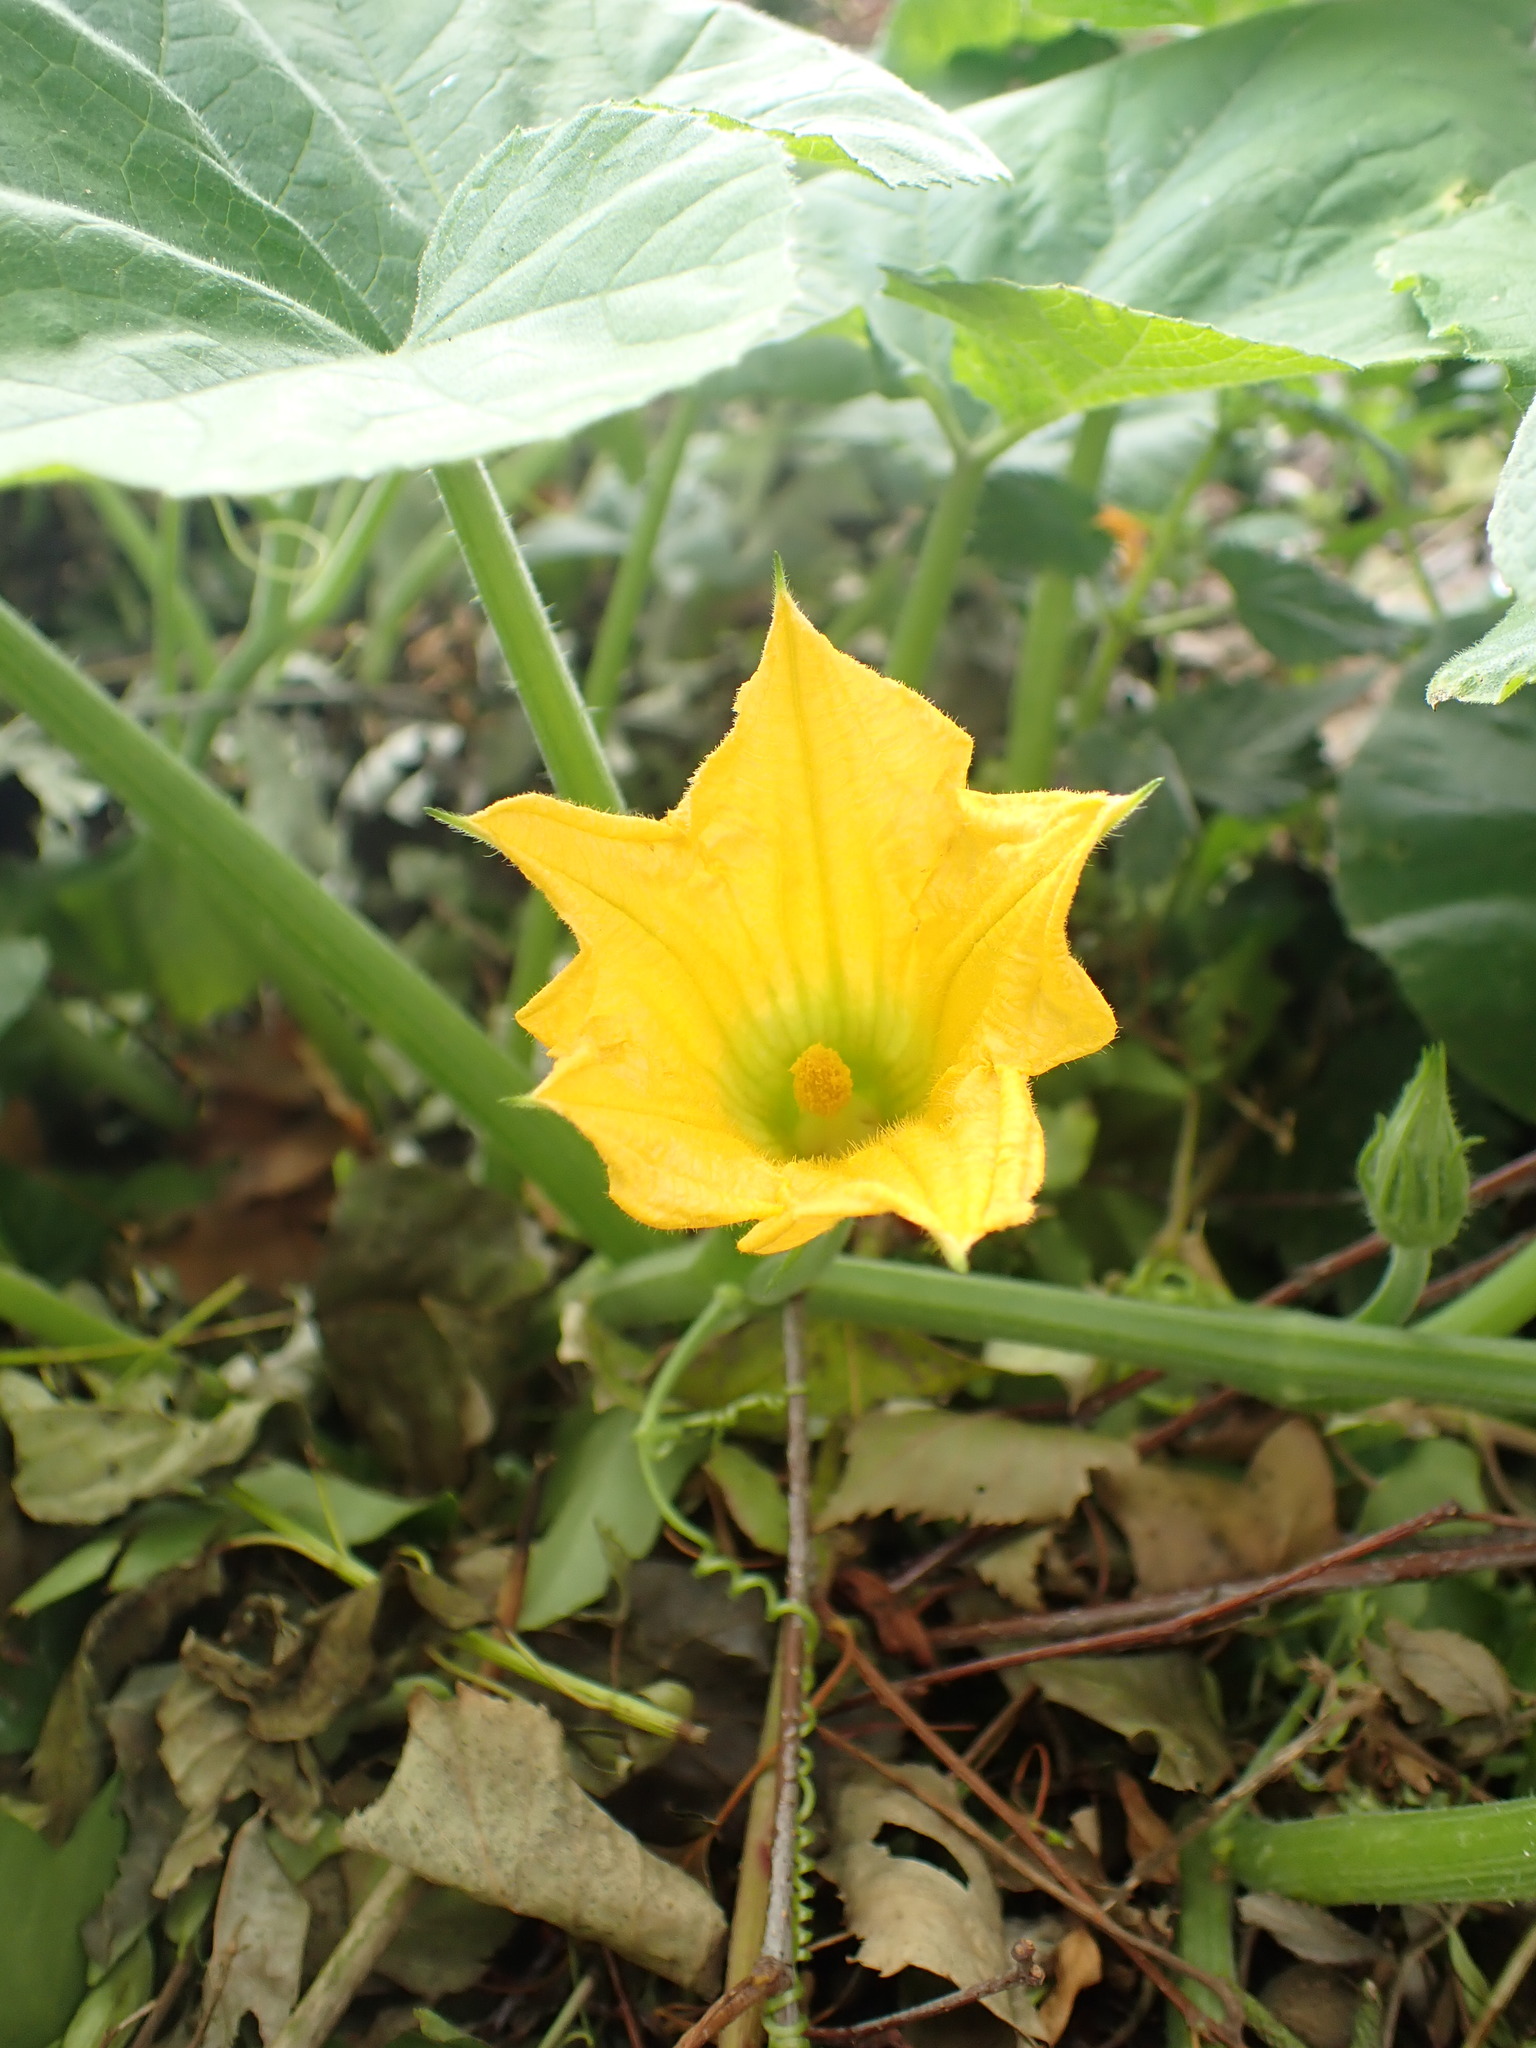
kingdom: Plantae
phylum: Tracheophyta
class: Magnoliopsida
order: Cucurbitales
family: Cucurbitaceae
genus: Cucurbita
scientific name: Cucurbita pepo
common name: Marrow
